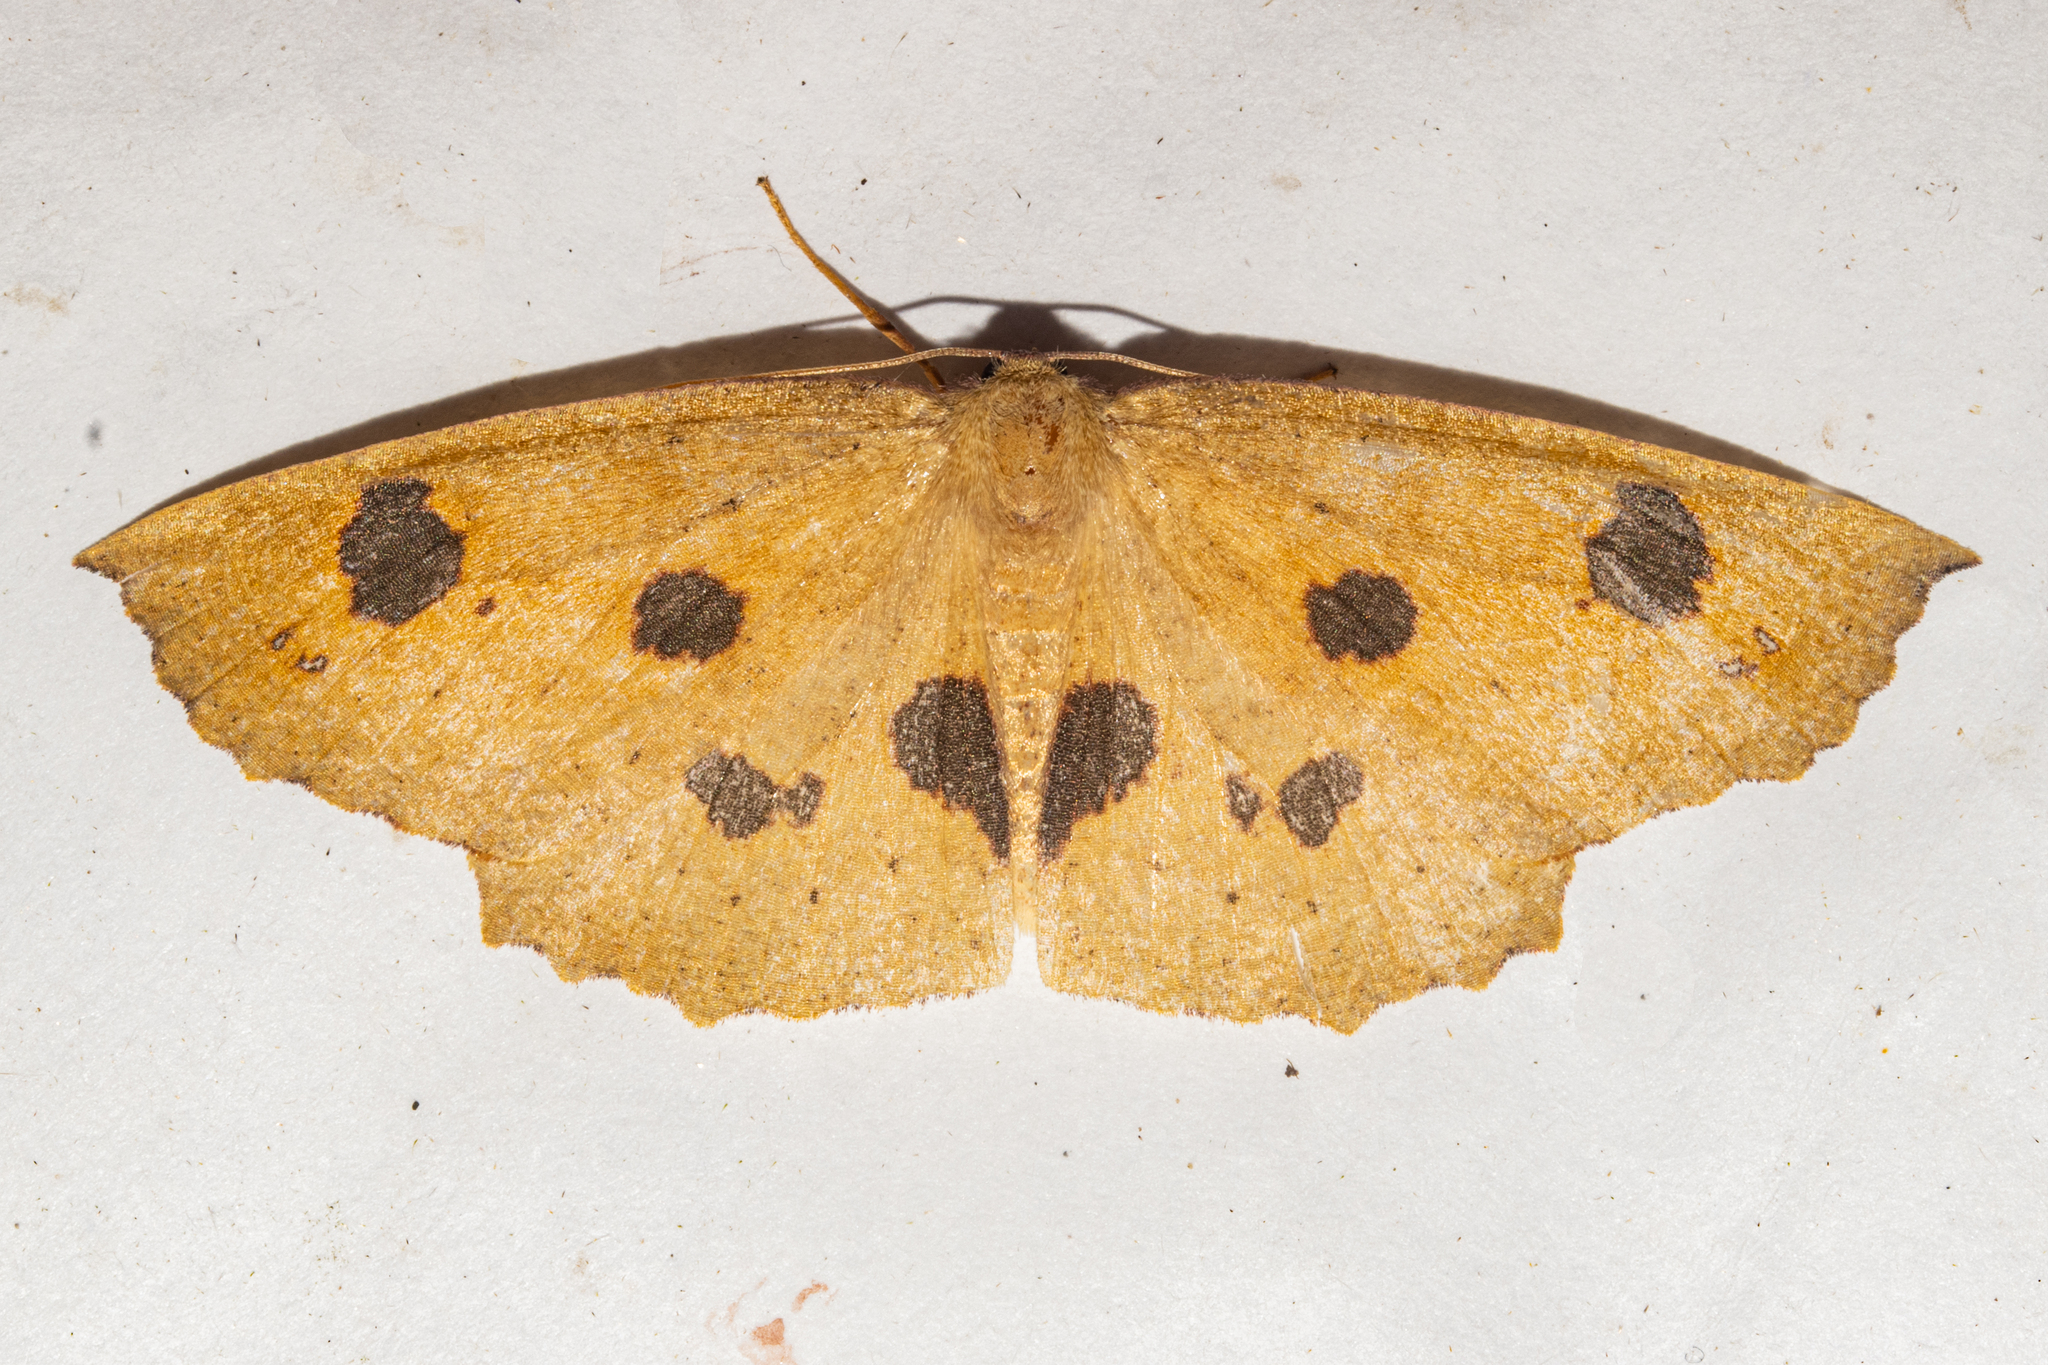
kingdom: Animalia
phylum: Arthropoda
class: Insecta
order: Lepidoptera
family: Geometridae
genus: Xyridacma
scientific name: Xyridacma ustaria
